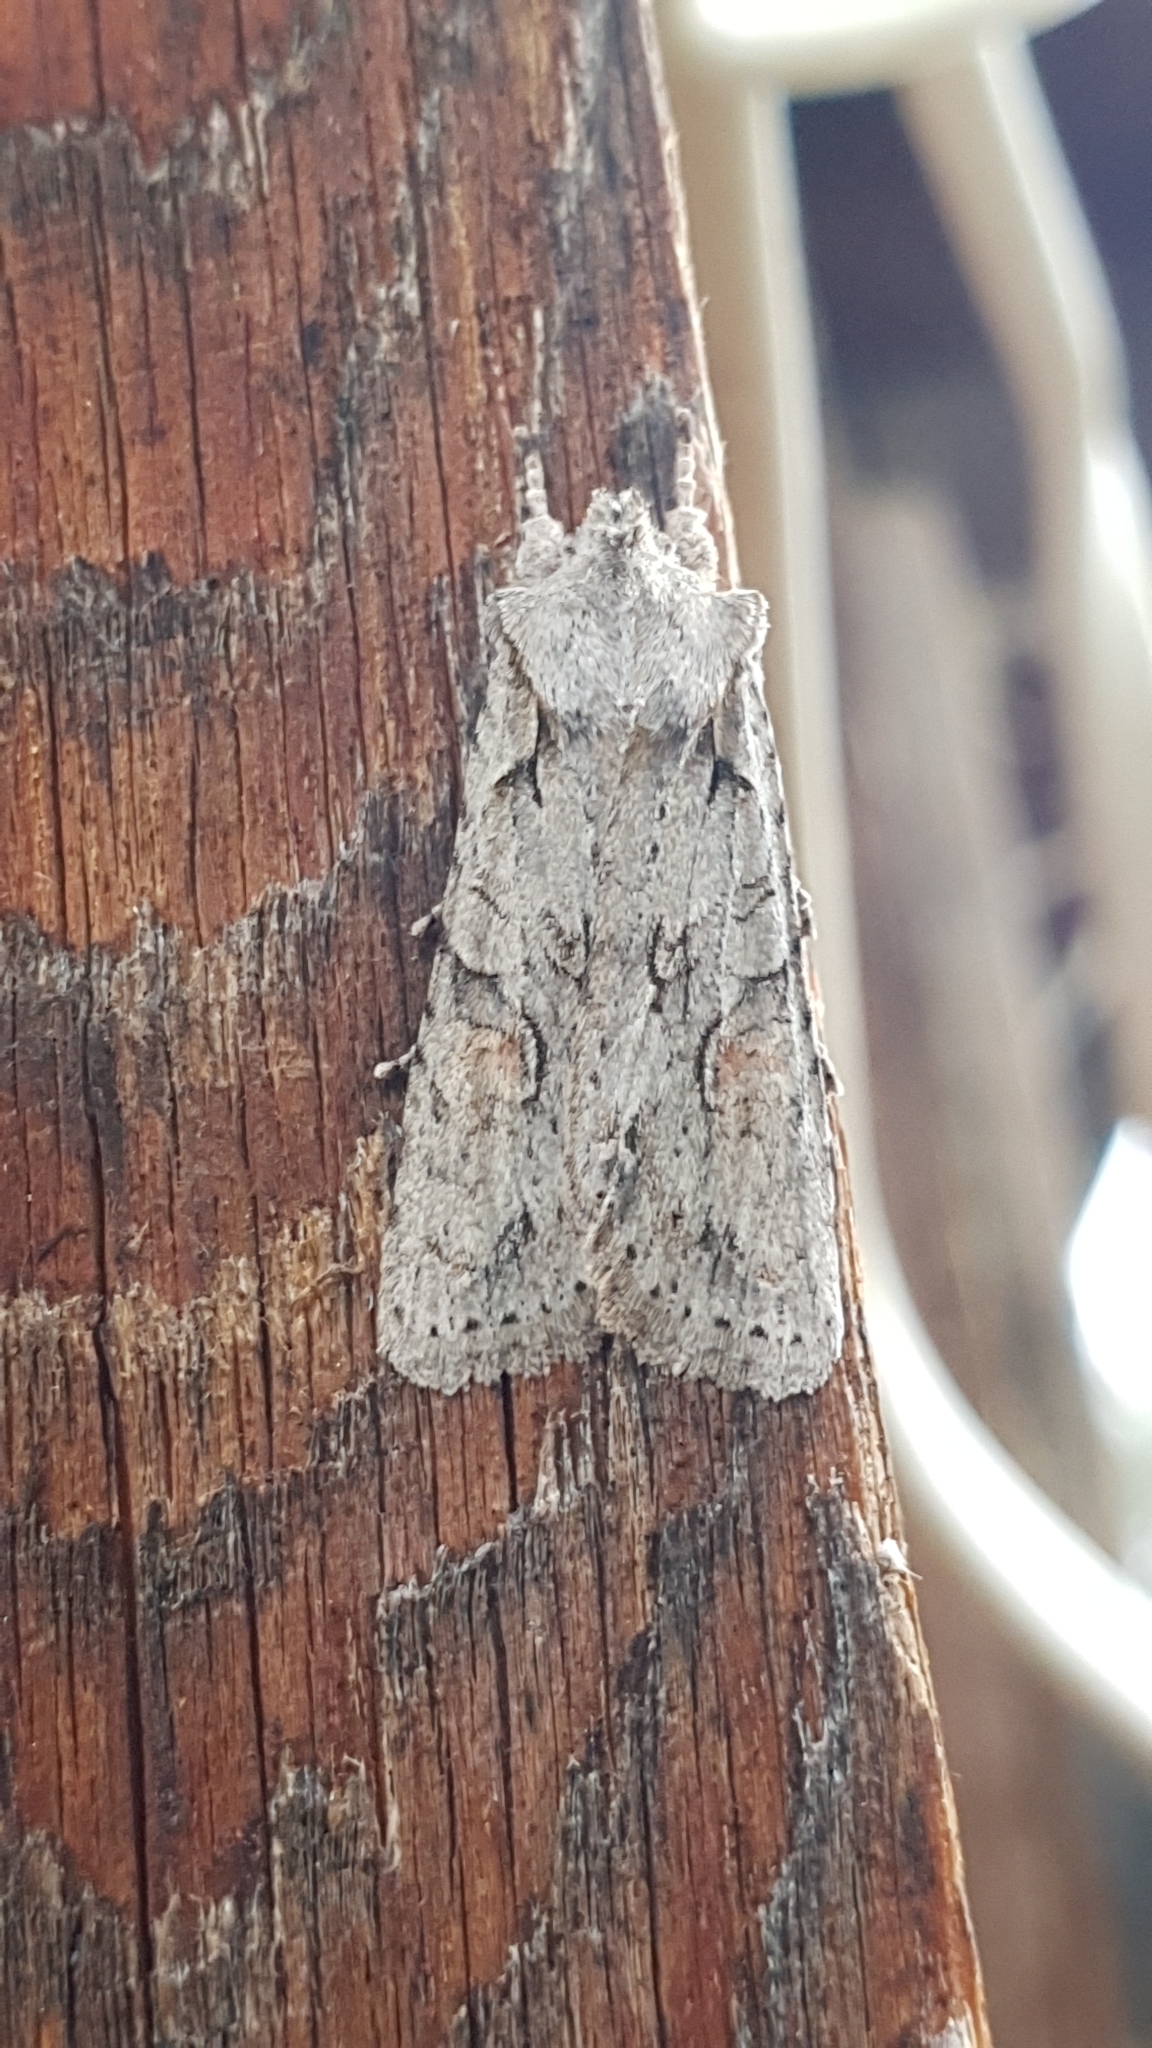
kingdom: Animalia
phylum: Arthropoda
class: Insecta
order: Lepidoptera
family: Noctuidae
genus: Lithophane
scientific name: Lithophane ornitopus
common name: Grey shoulder-knot
